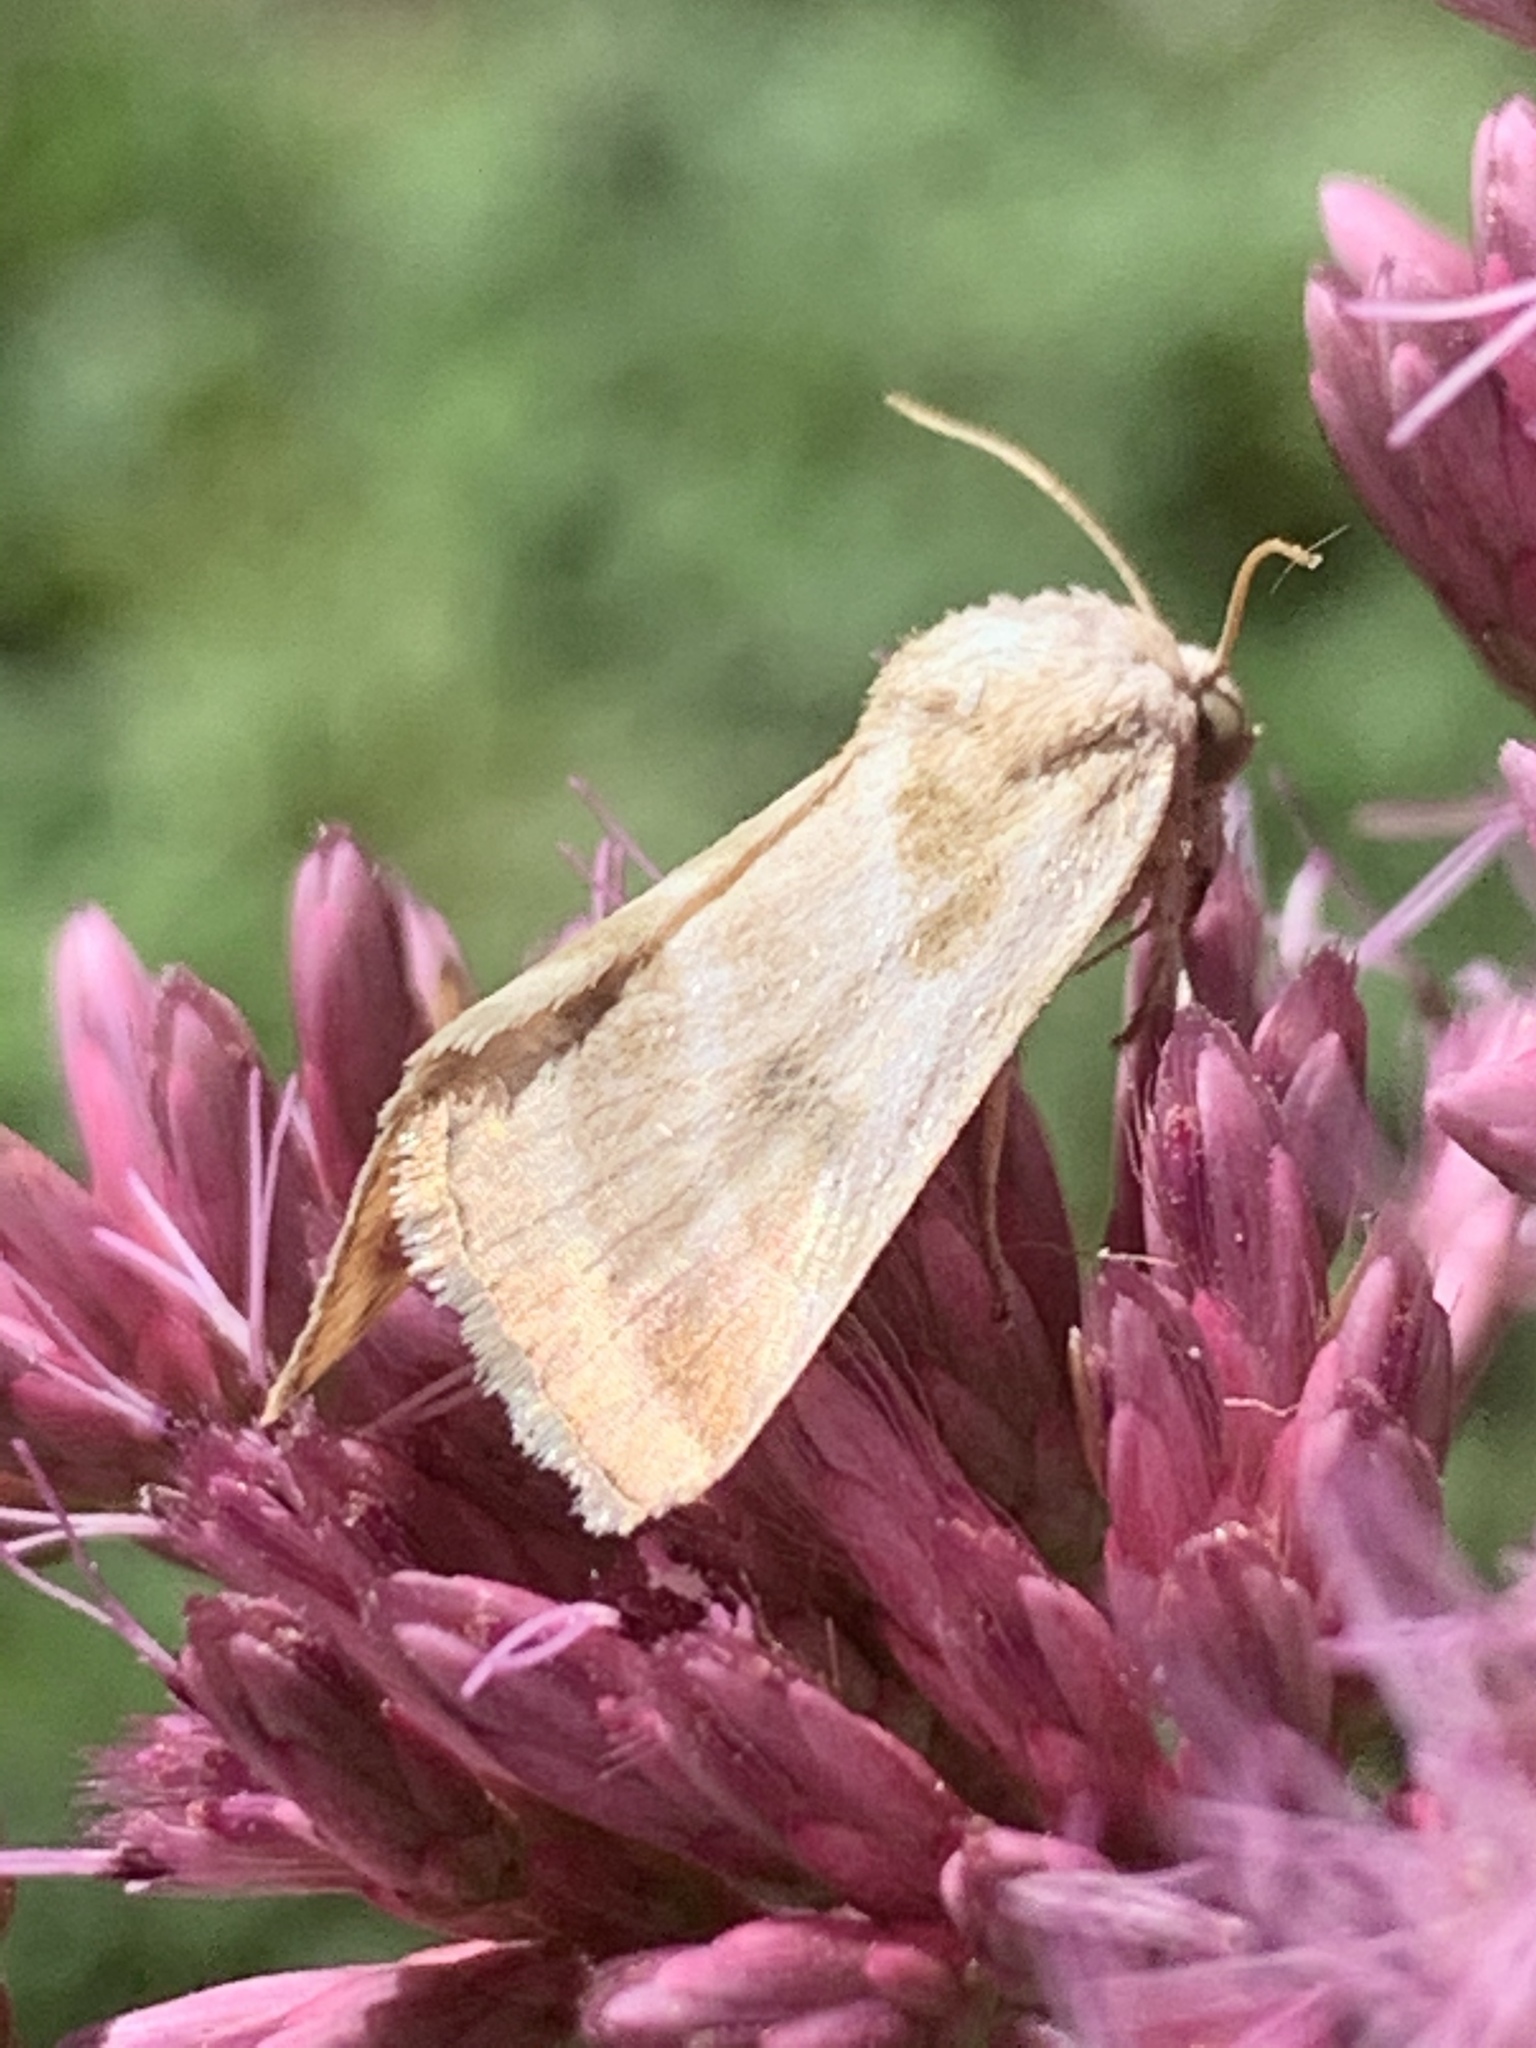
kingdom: Animalia
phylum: Arthropoda
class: Insecta
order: Lepidoptera
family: Noctuidae
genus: Schinia
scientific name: Schinia trifascia
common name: Three-lined flower moth
